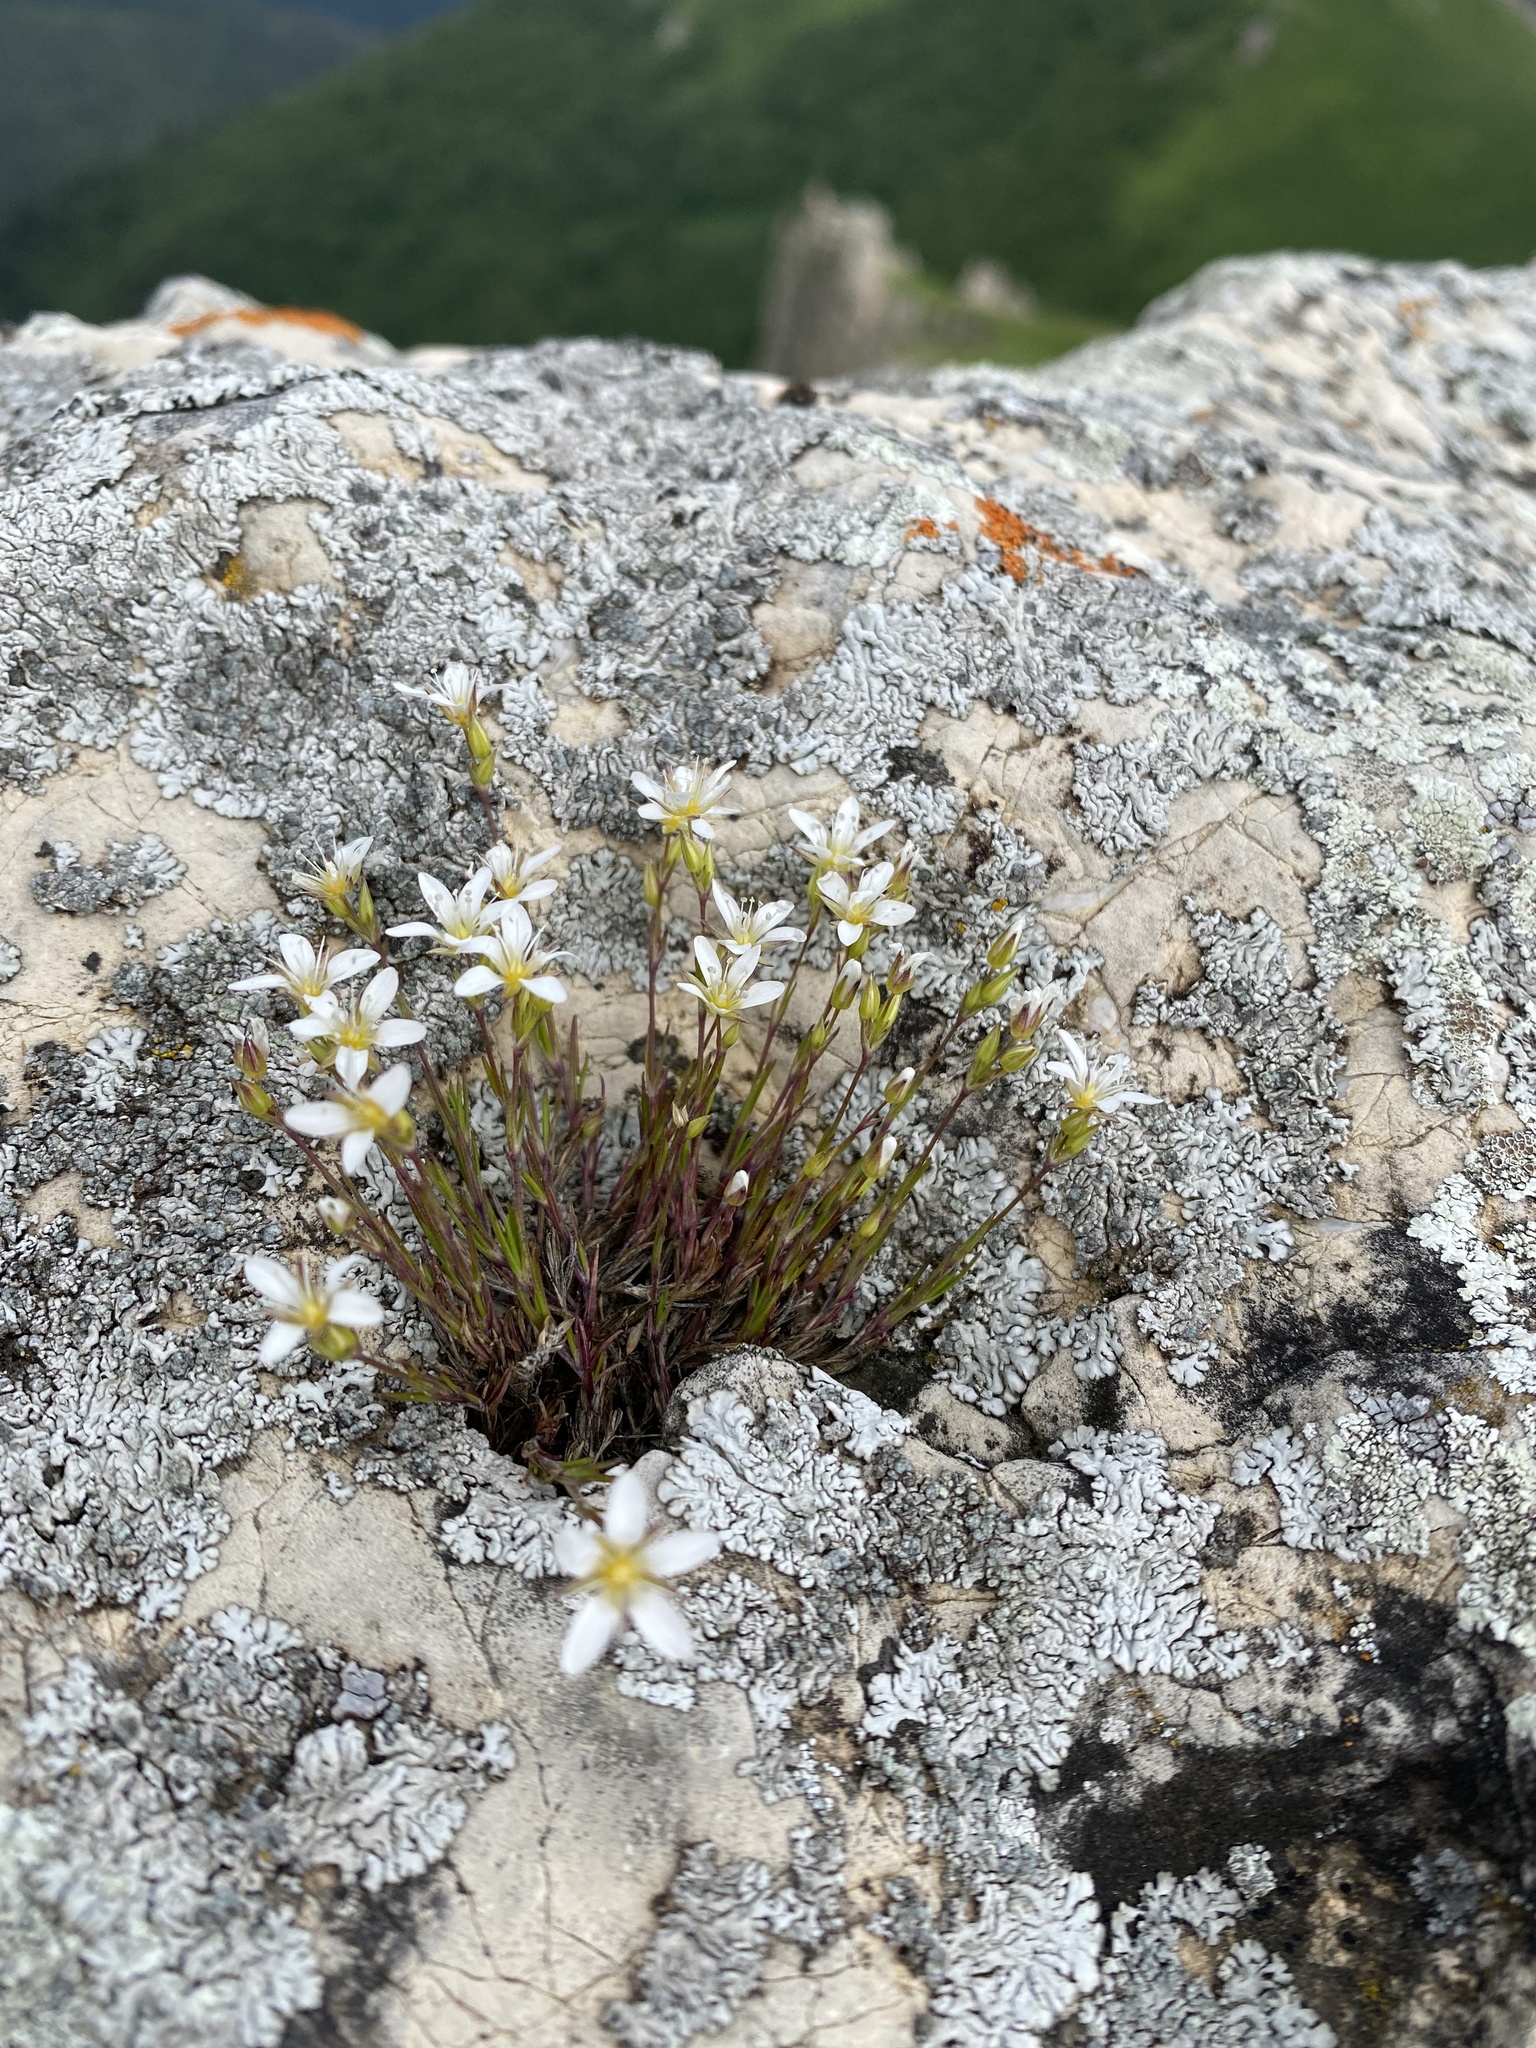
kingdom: Plantae
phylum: Tracheophyta
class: Magnoliopsida
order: Caryophyllales
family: Caryophyllaceae
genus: Minuartia
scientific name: Minuartia buschiana
